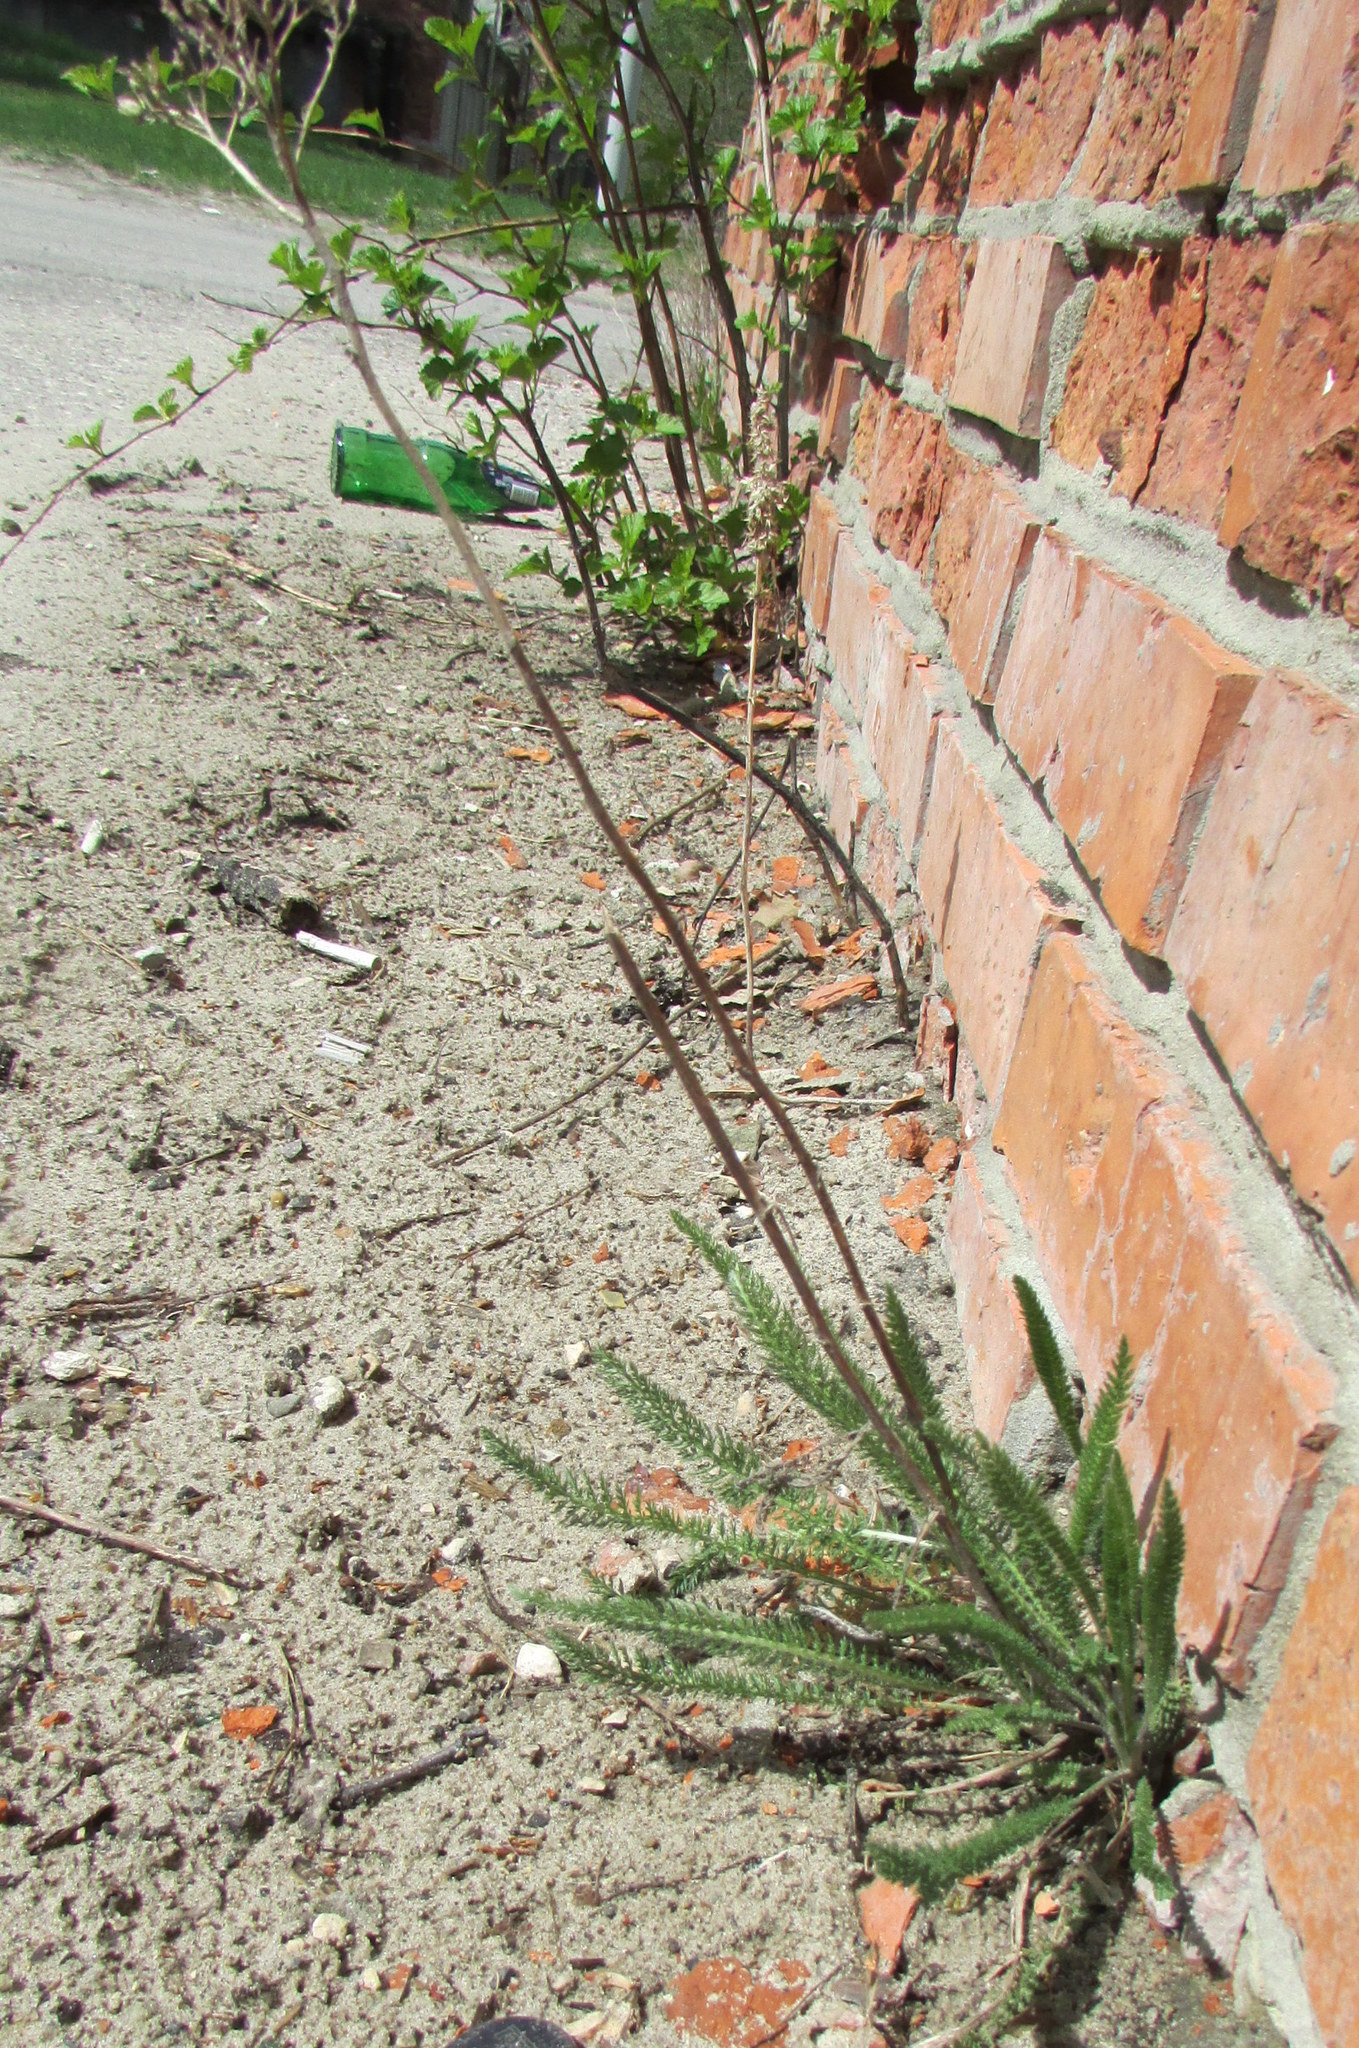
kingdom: Plantae
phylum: Tracheophyta
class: Magnoliopsida
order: Asterales
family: Asteraceae
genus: Achillea
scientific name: Achillea millefolium
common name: Yarrow
